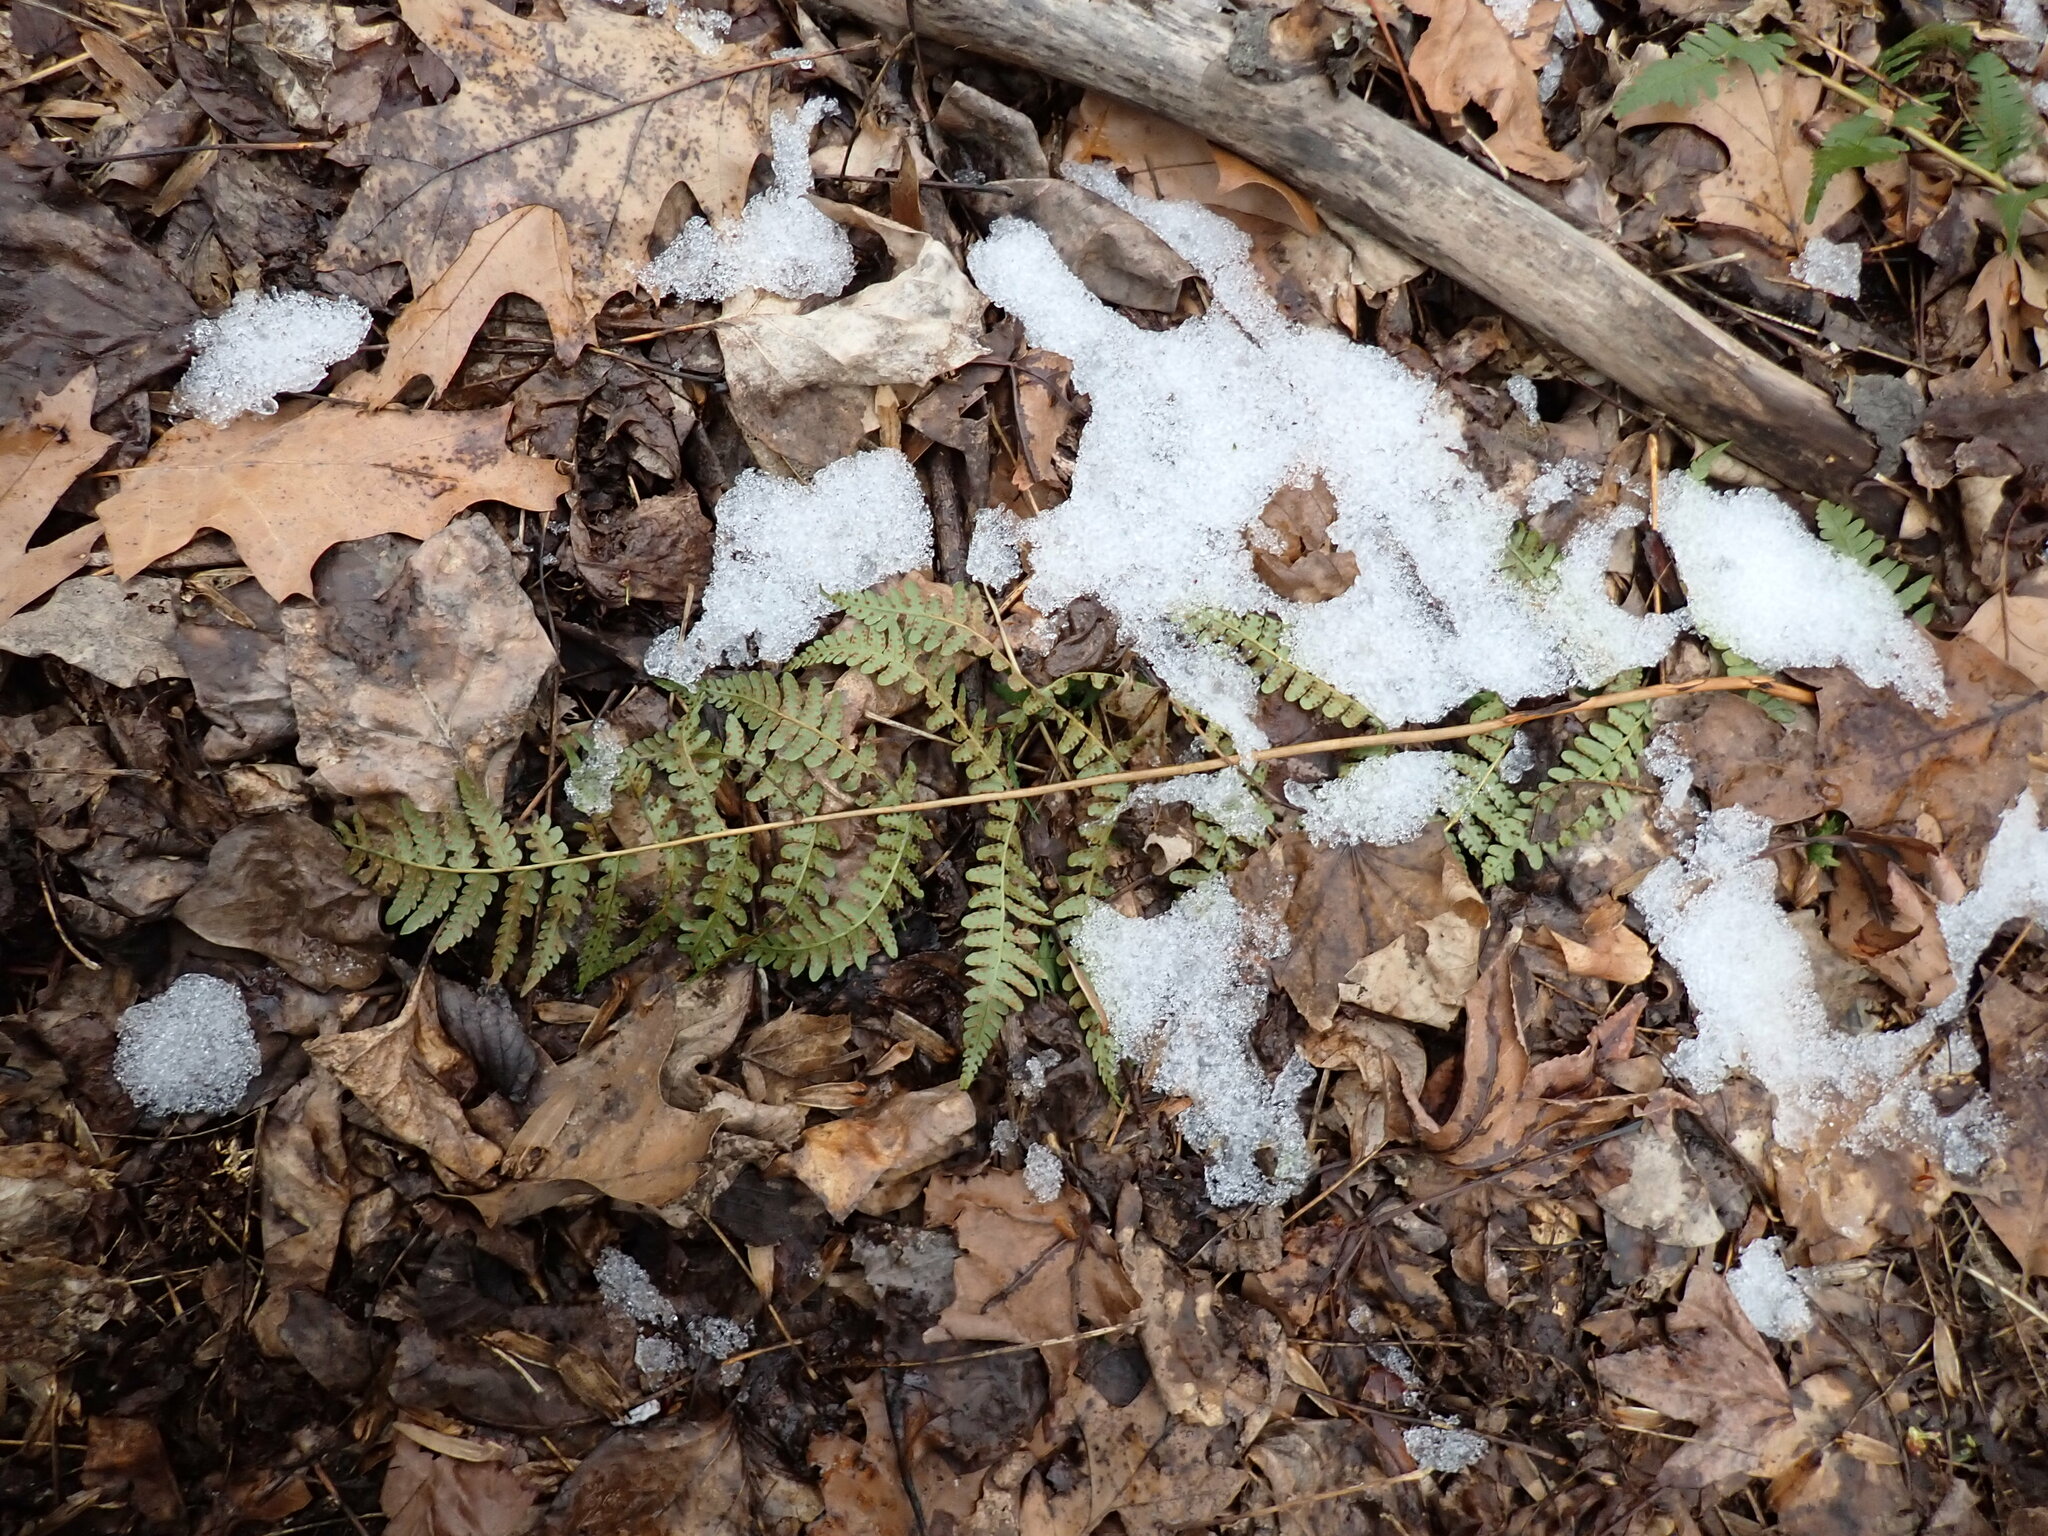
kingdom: Plantae
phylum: Tracheophyta
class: Polypodiopsida
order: Polypodiales
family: Dryopteridaceae
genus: Dryopteris
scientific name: Dryopteris intermedia
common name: Evergreen wood fern
